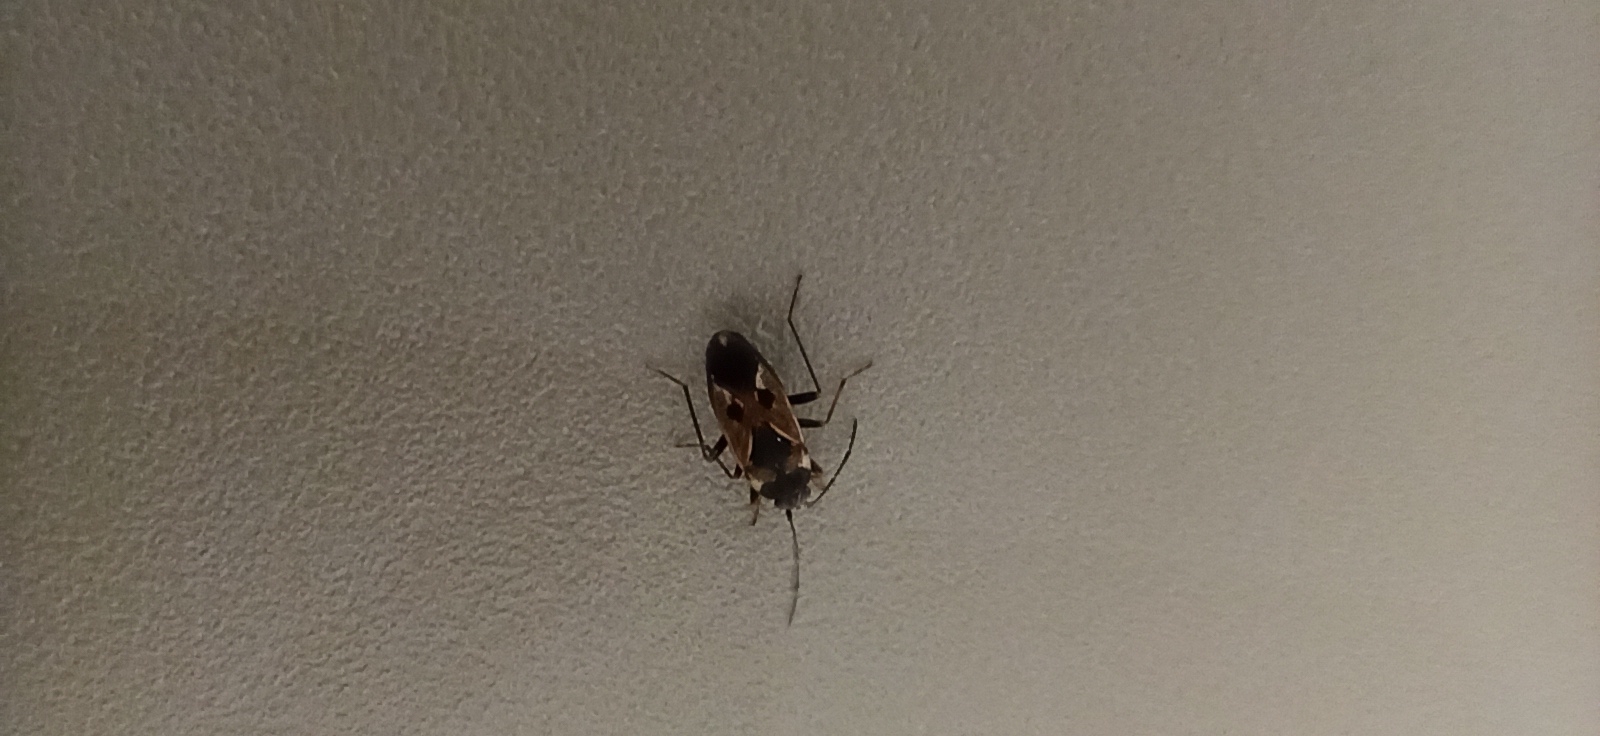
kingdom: Animalia
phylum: Arthropoda
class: Insecta
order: Hemiptera
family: Rhyparochromidae
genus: Rhyparochromus
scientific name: Rhyparochromus vulgaris
